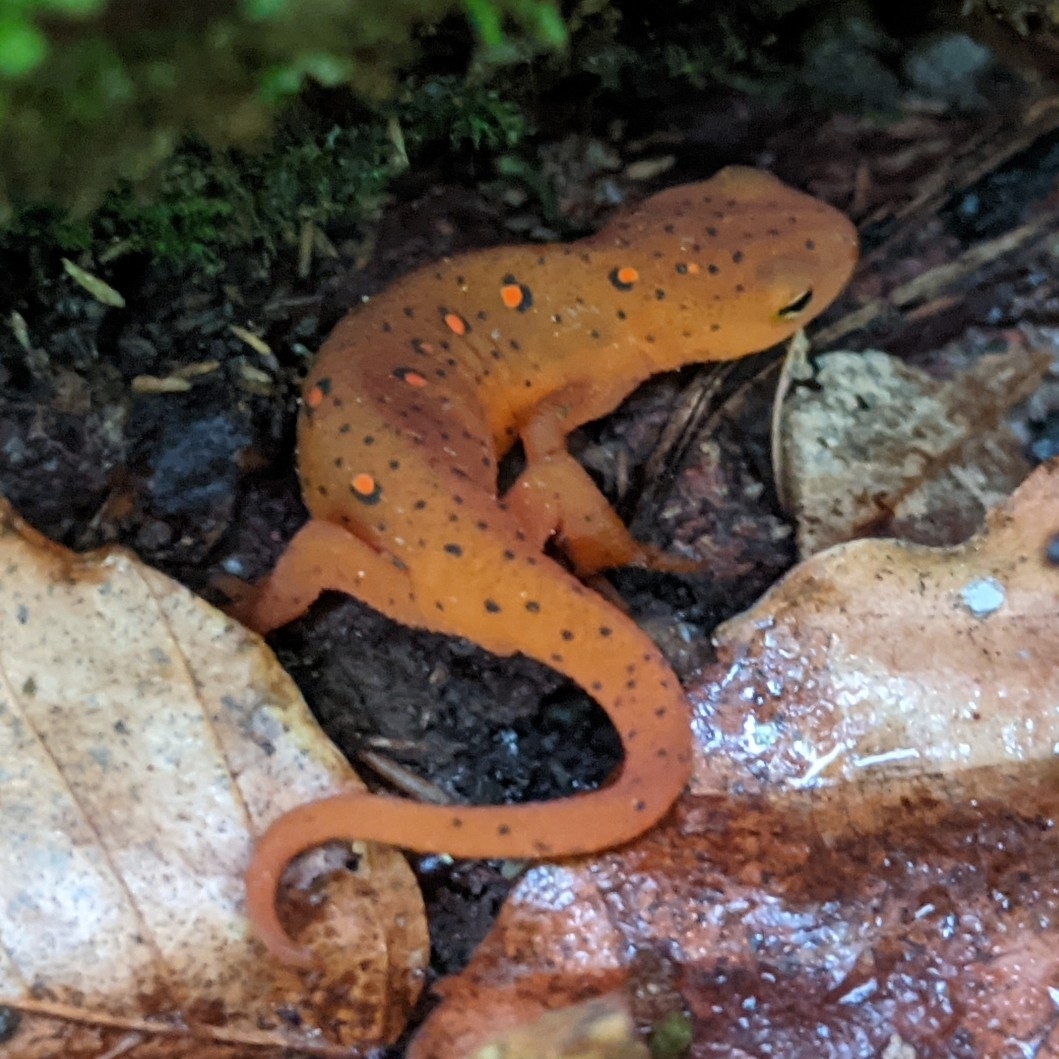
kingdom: Animalia
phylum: Chordata
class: Amphibia
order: Caudata
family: Salamandridae
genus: Notophthalmus
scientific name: Notophthalmus viridescens
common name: Eastern newt
